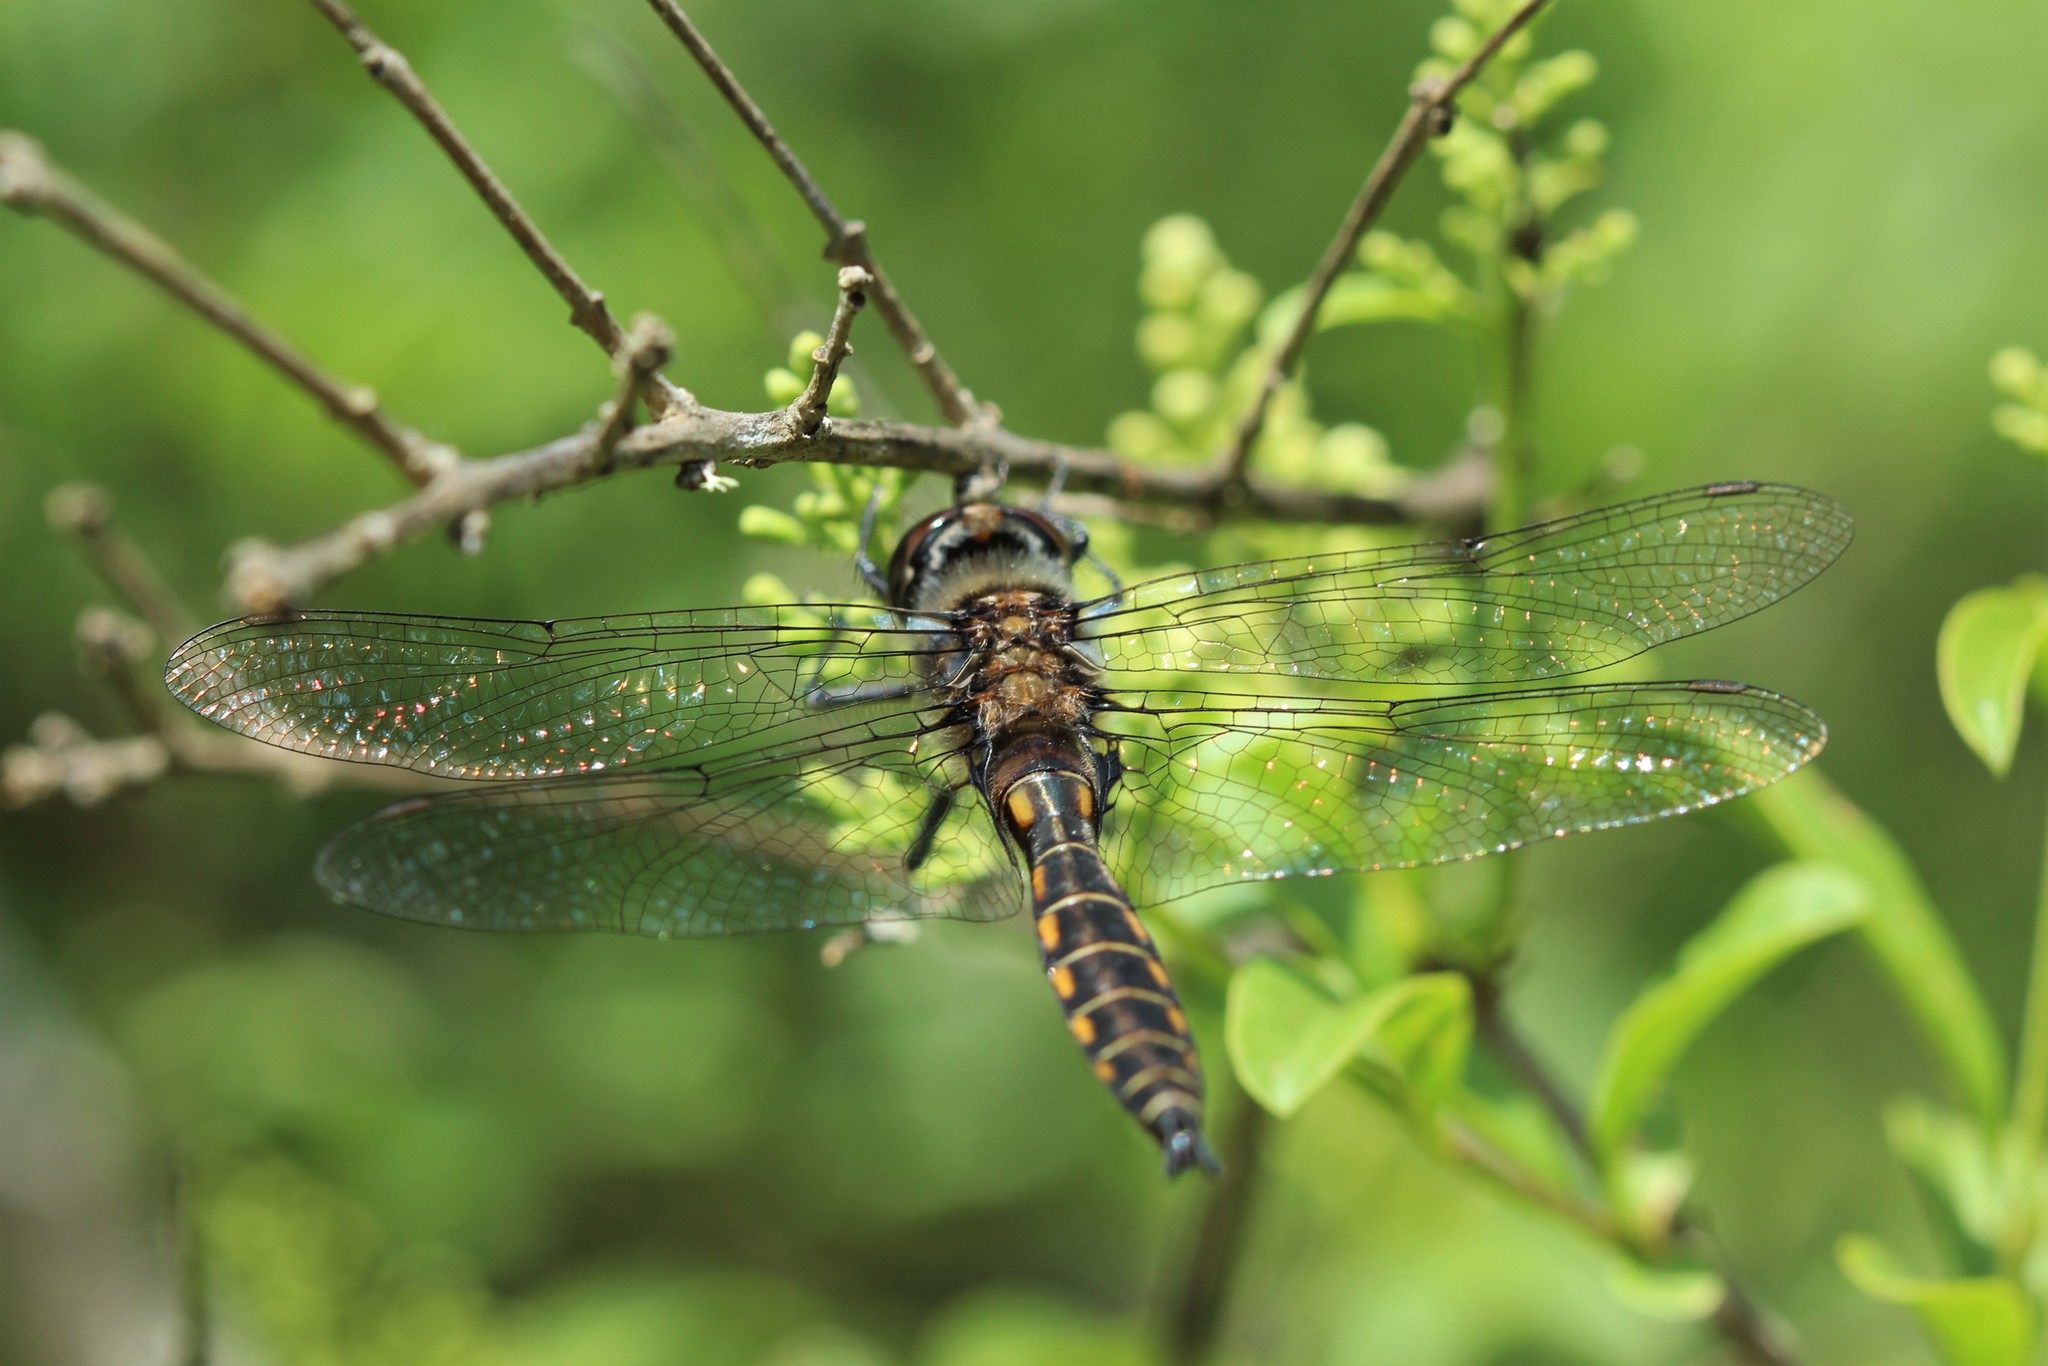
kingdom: Animalia
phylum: Arthropoda
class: Insecta
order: Odonata
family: Corduliidae
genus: Epitheca
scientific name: Epitheca spinigera
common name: Spiny baskettail
